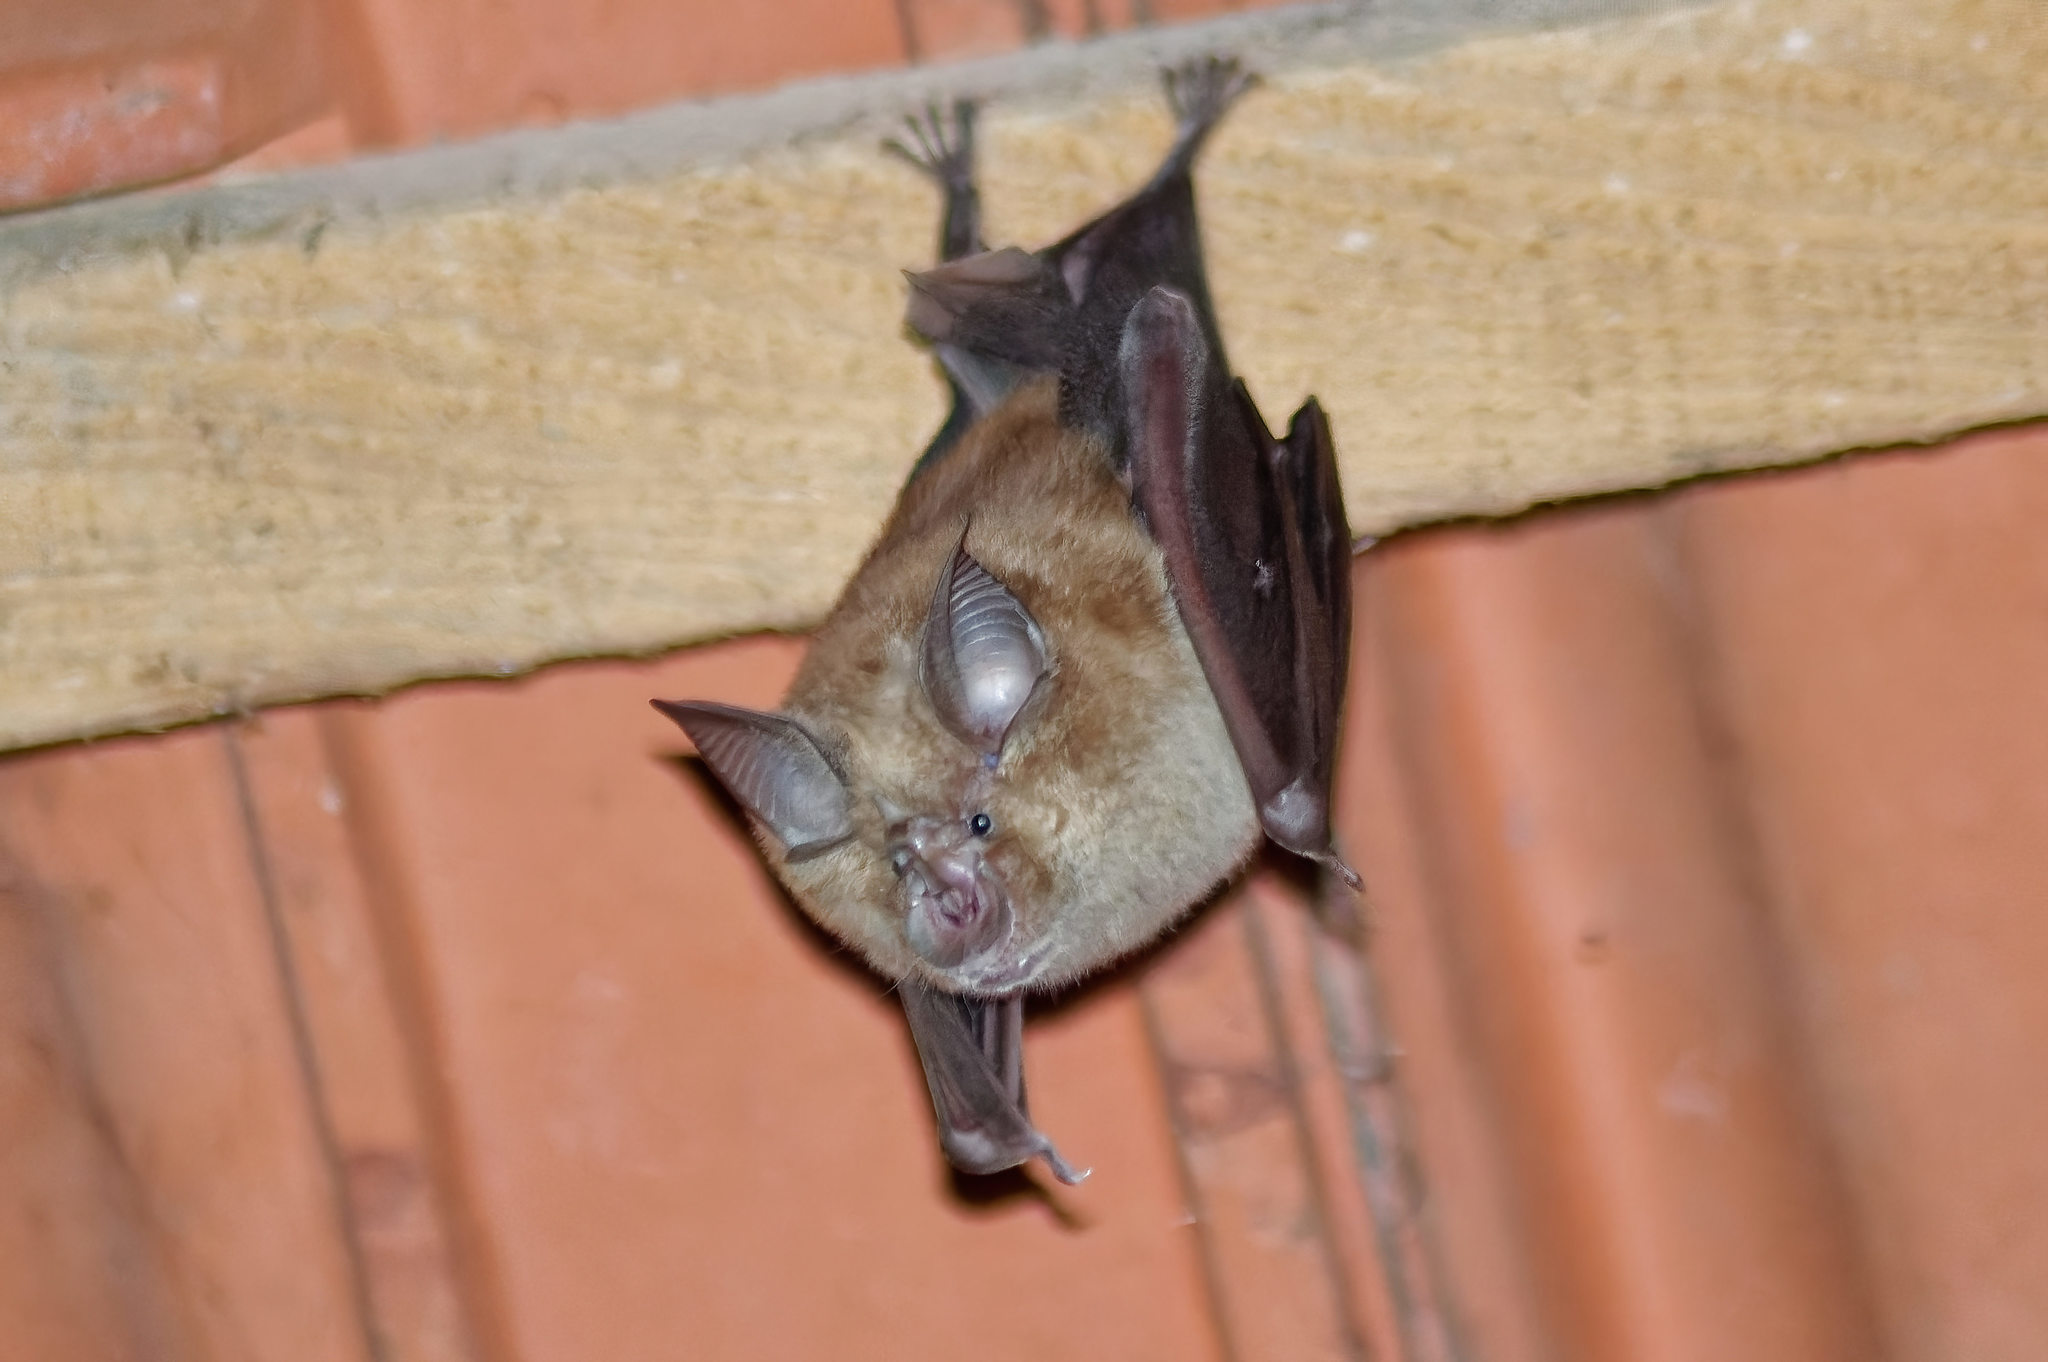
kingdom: Animalia
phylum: Chordata
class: Mammalia
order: Chiroptera
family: Rhinolophidae
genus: Rhinolophus
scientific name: Rhinolophus ferrumequinum
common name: Greater horseshoe bat
